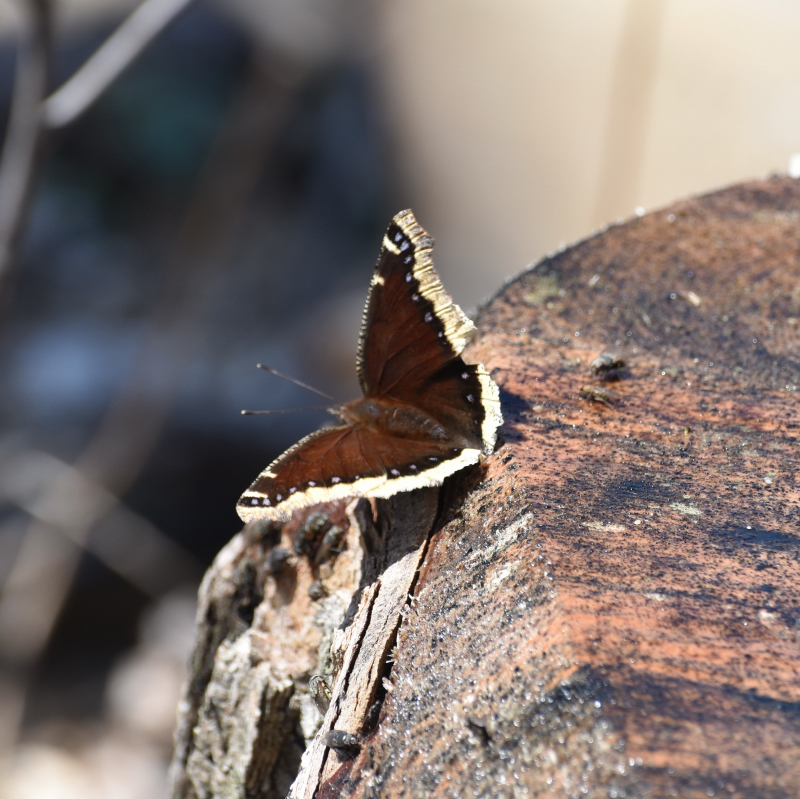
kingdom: Animalia
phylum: Arthropoda
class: Insecta
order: Lepidoptera
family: Nymphalidae
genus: Nymphalis
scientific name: Nymphalis antiopa
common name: Camberwell beauty
